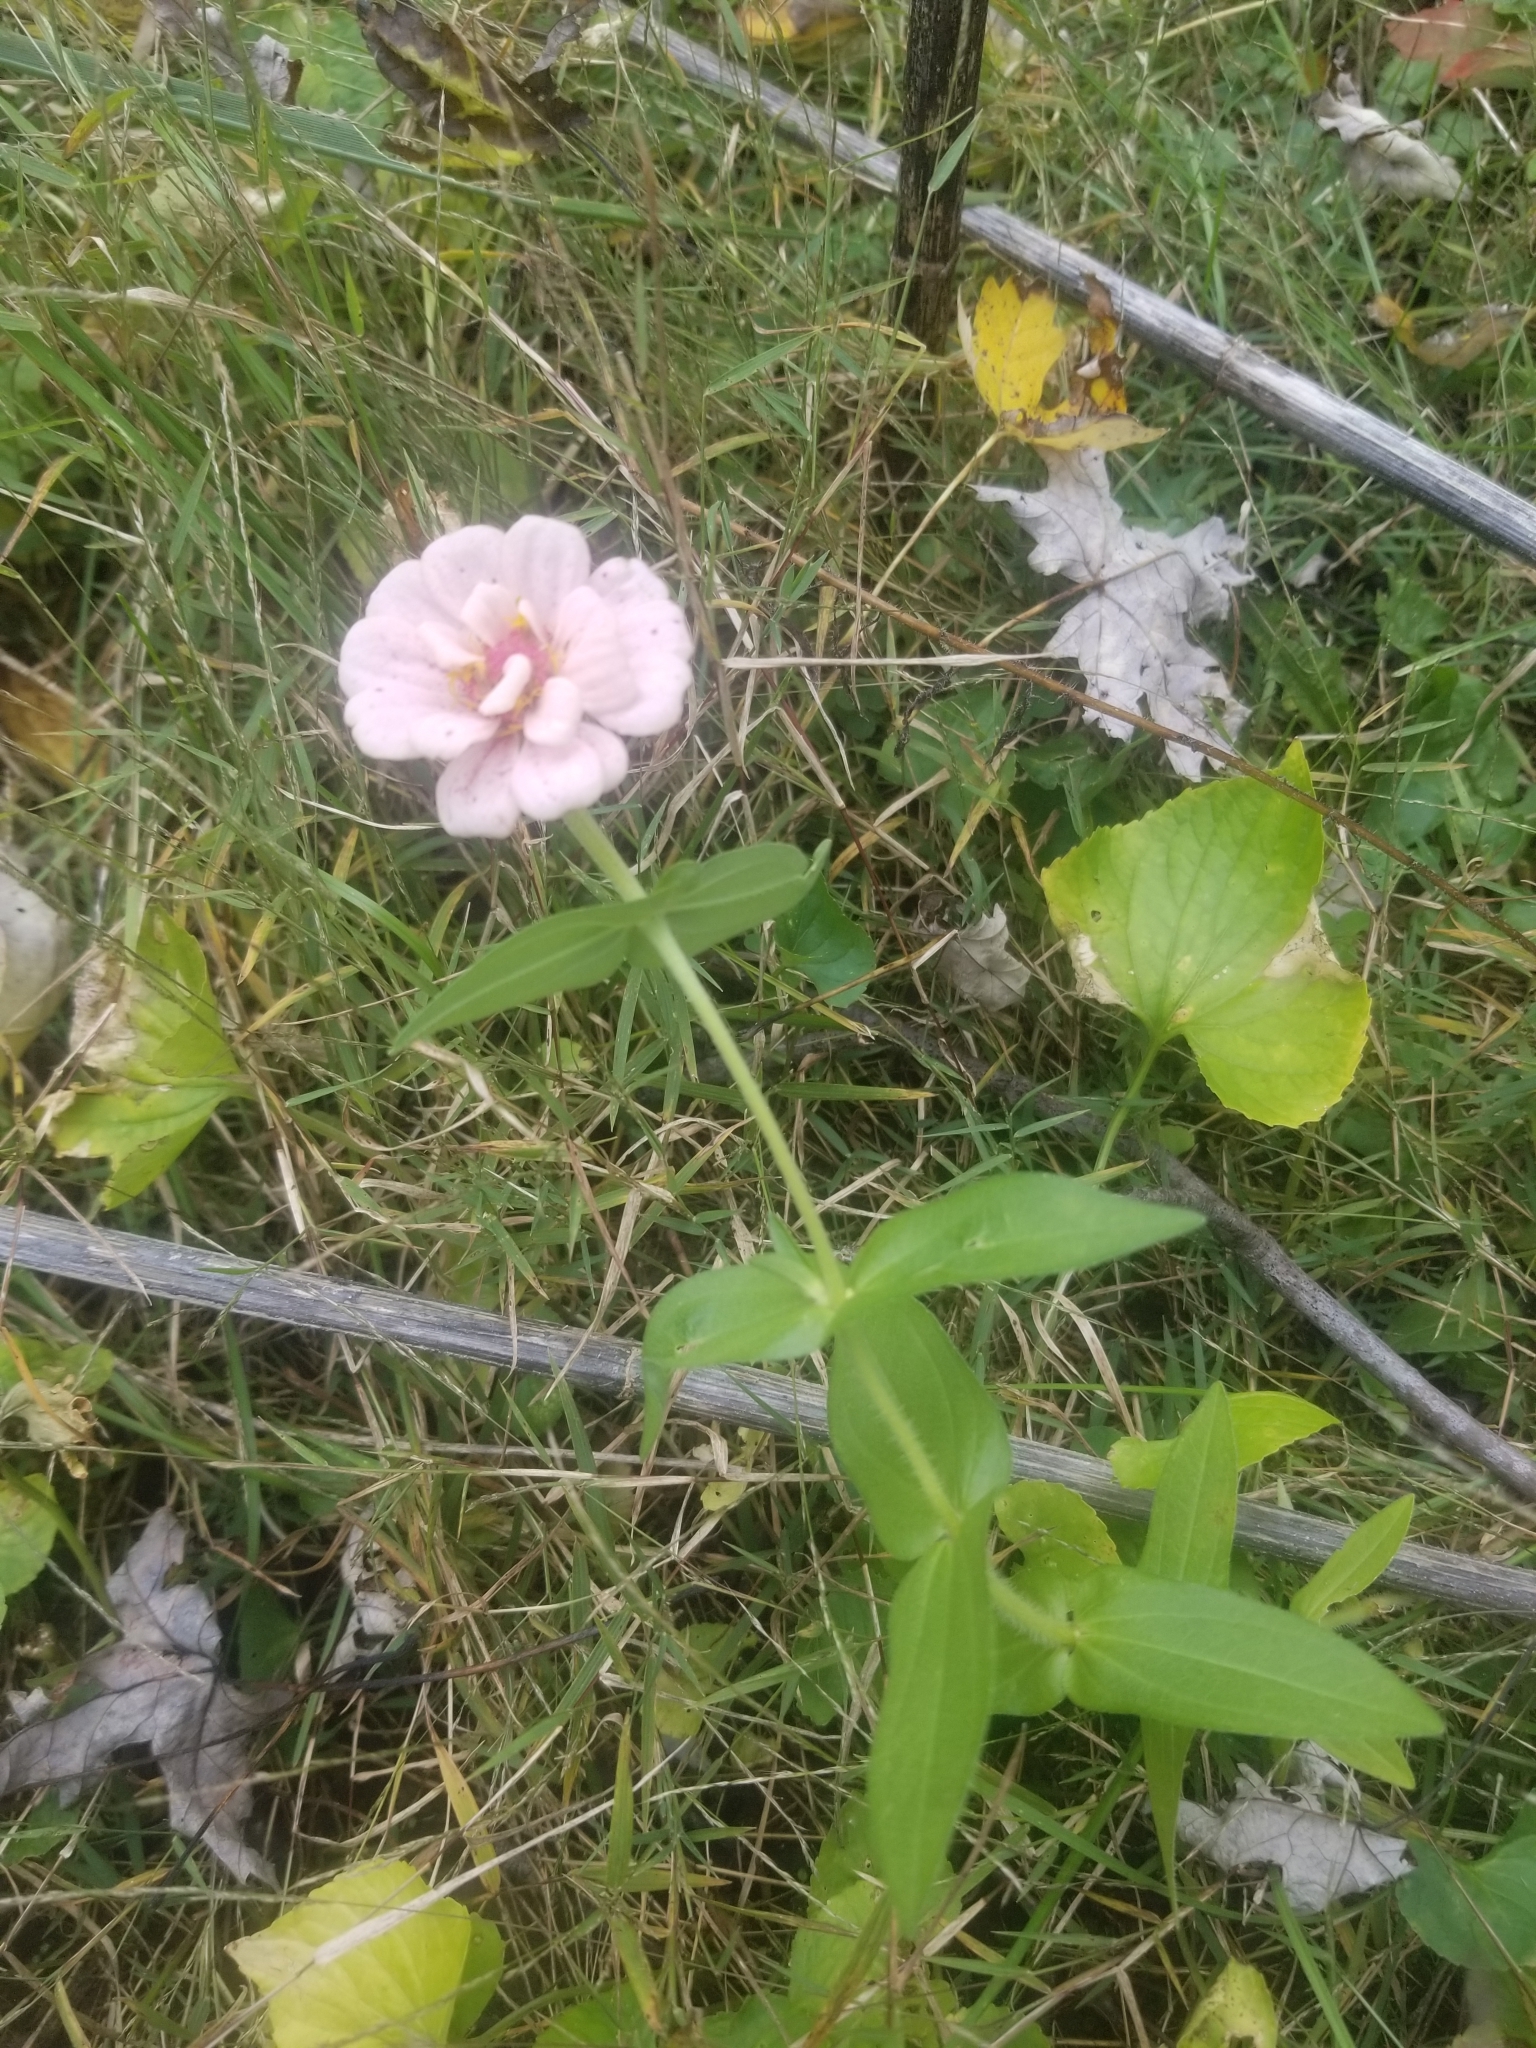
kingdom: Plantae
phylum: Tracheophyta
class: Magnoliopsida
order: Asterales
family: Asteraceae
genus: Zinnia
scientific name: Zinnia elegans
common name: Youth-and-age
